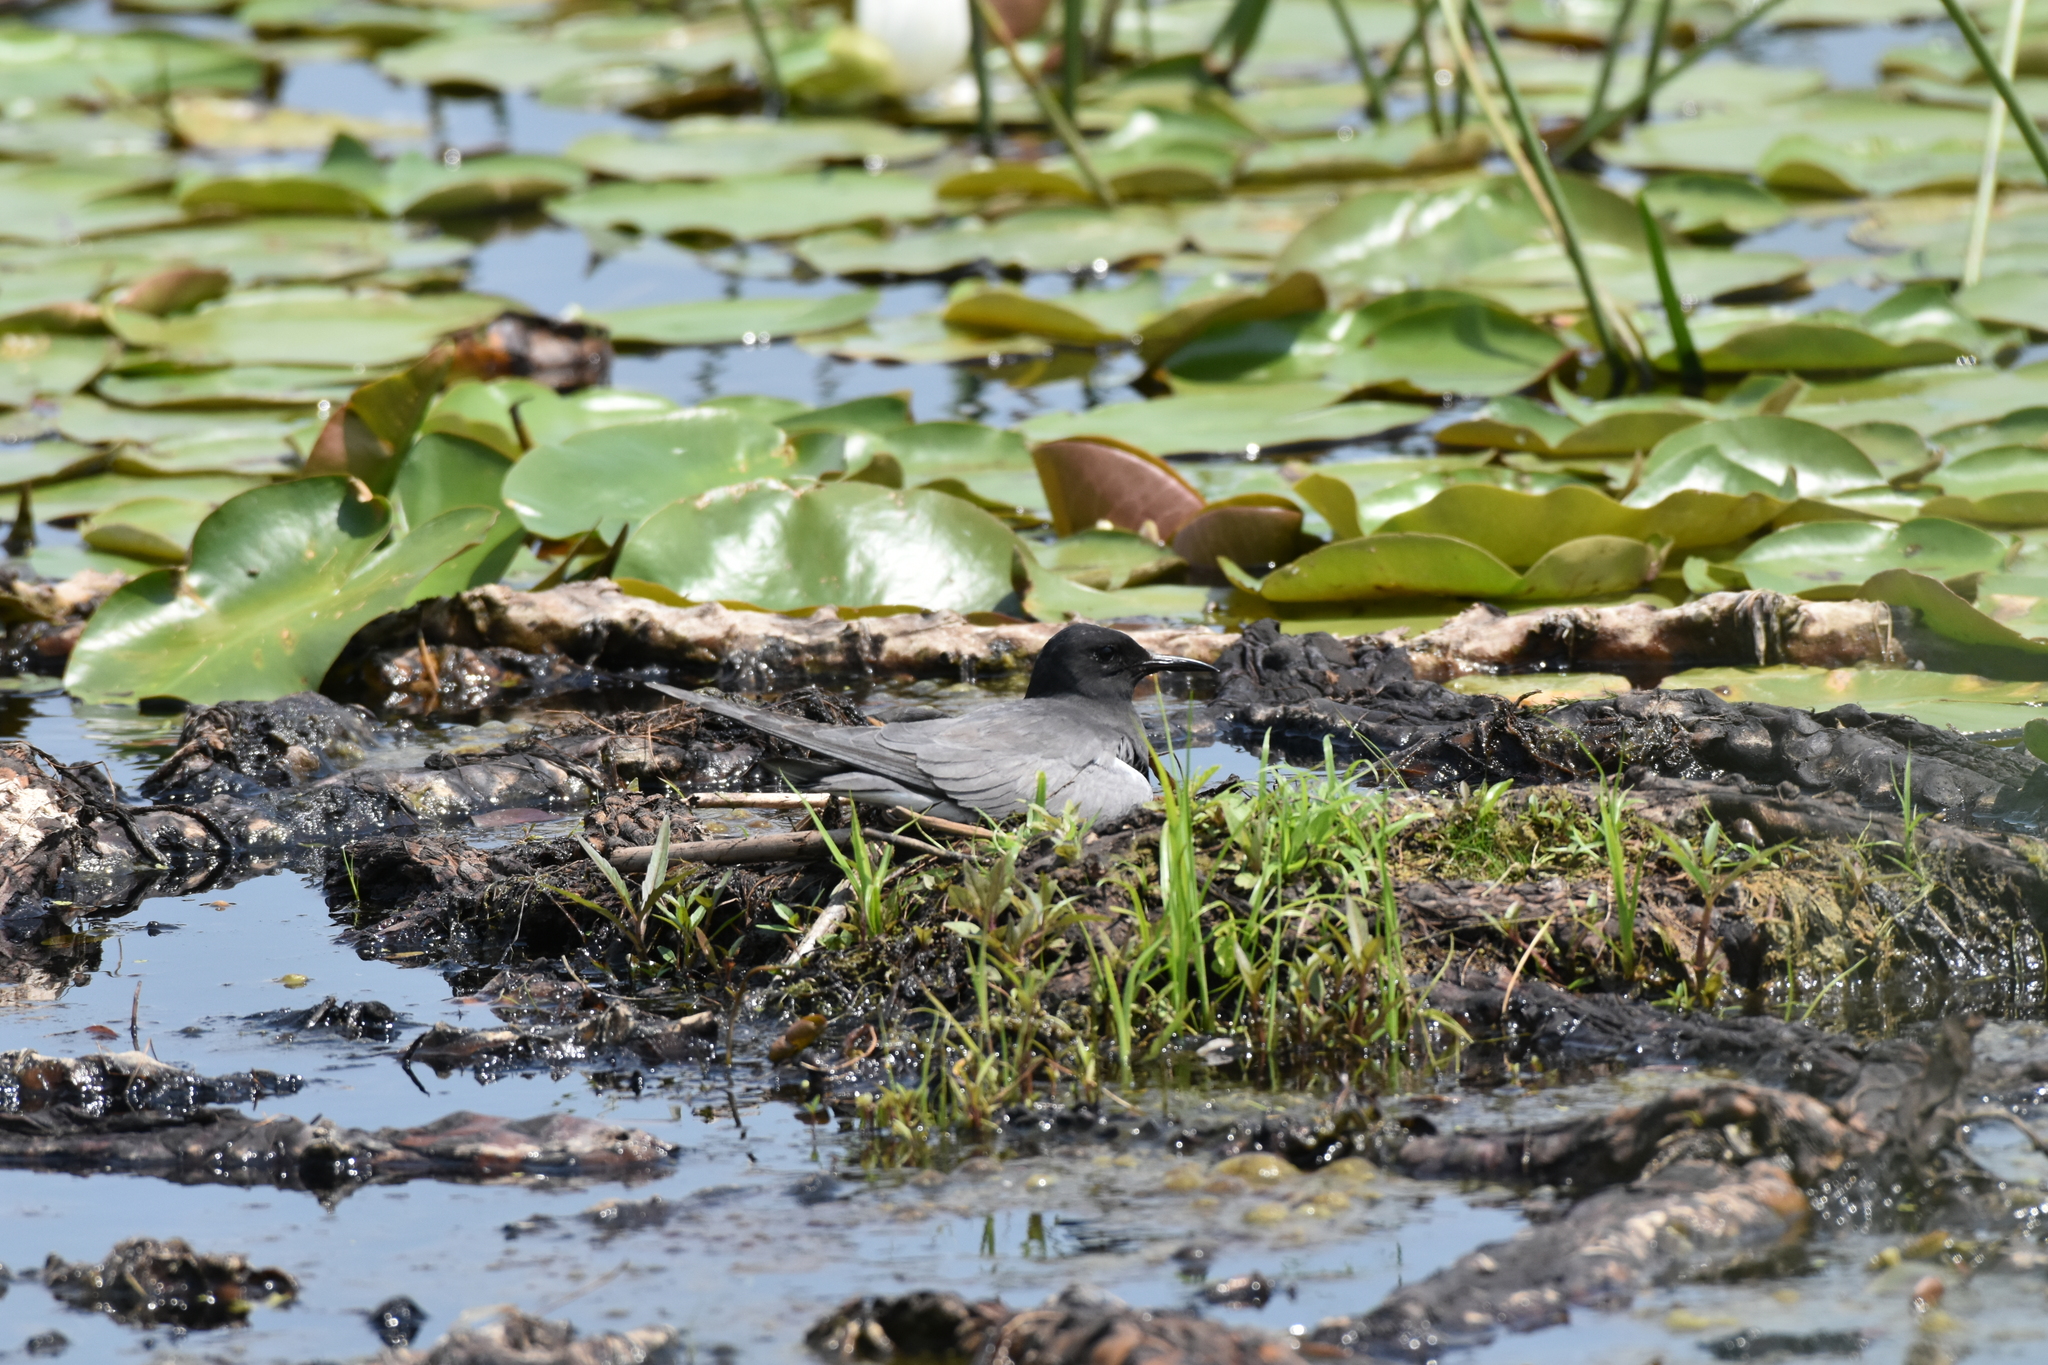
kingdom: Animalia
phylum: Chordata
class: Aves
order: Charadriiformes
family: Laridae
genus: Chlidonias
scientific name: Chlidonias niger
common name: Black tern
